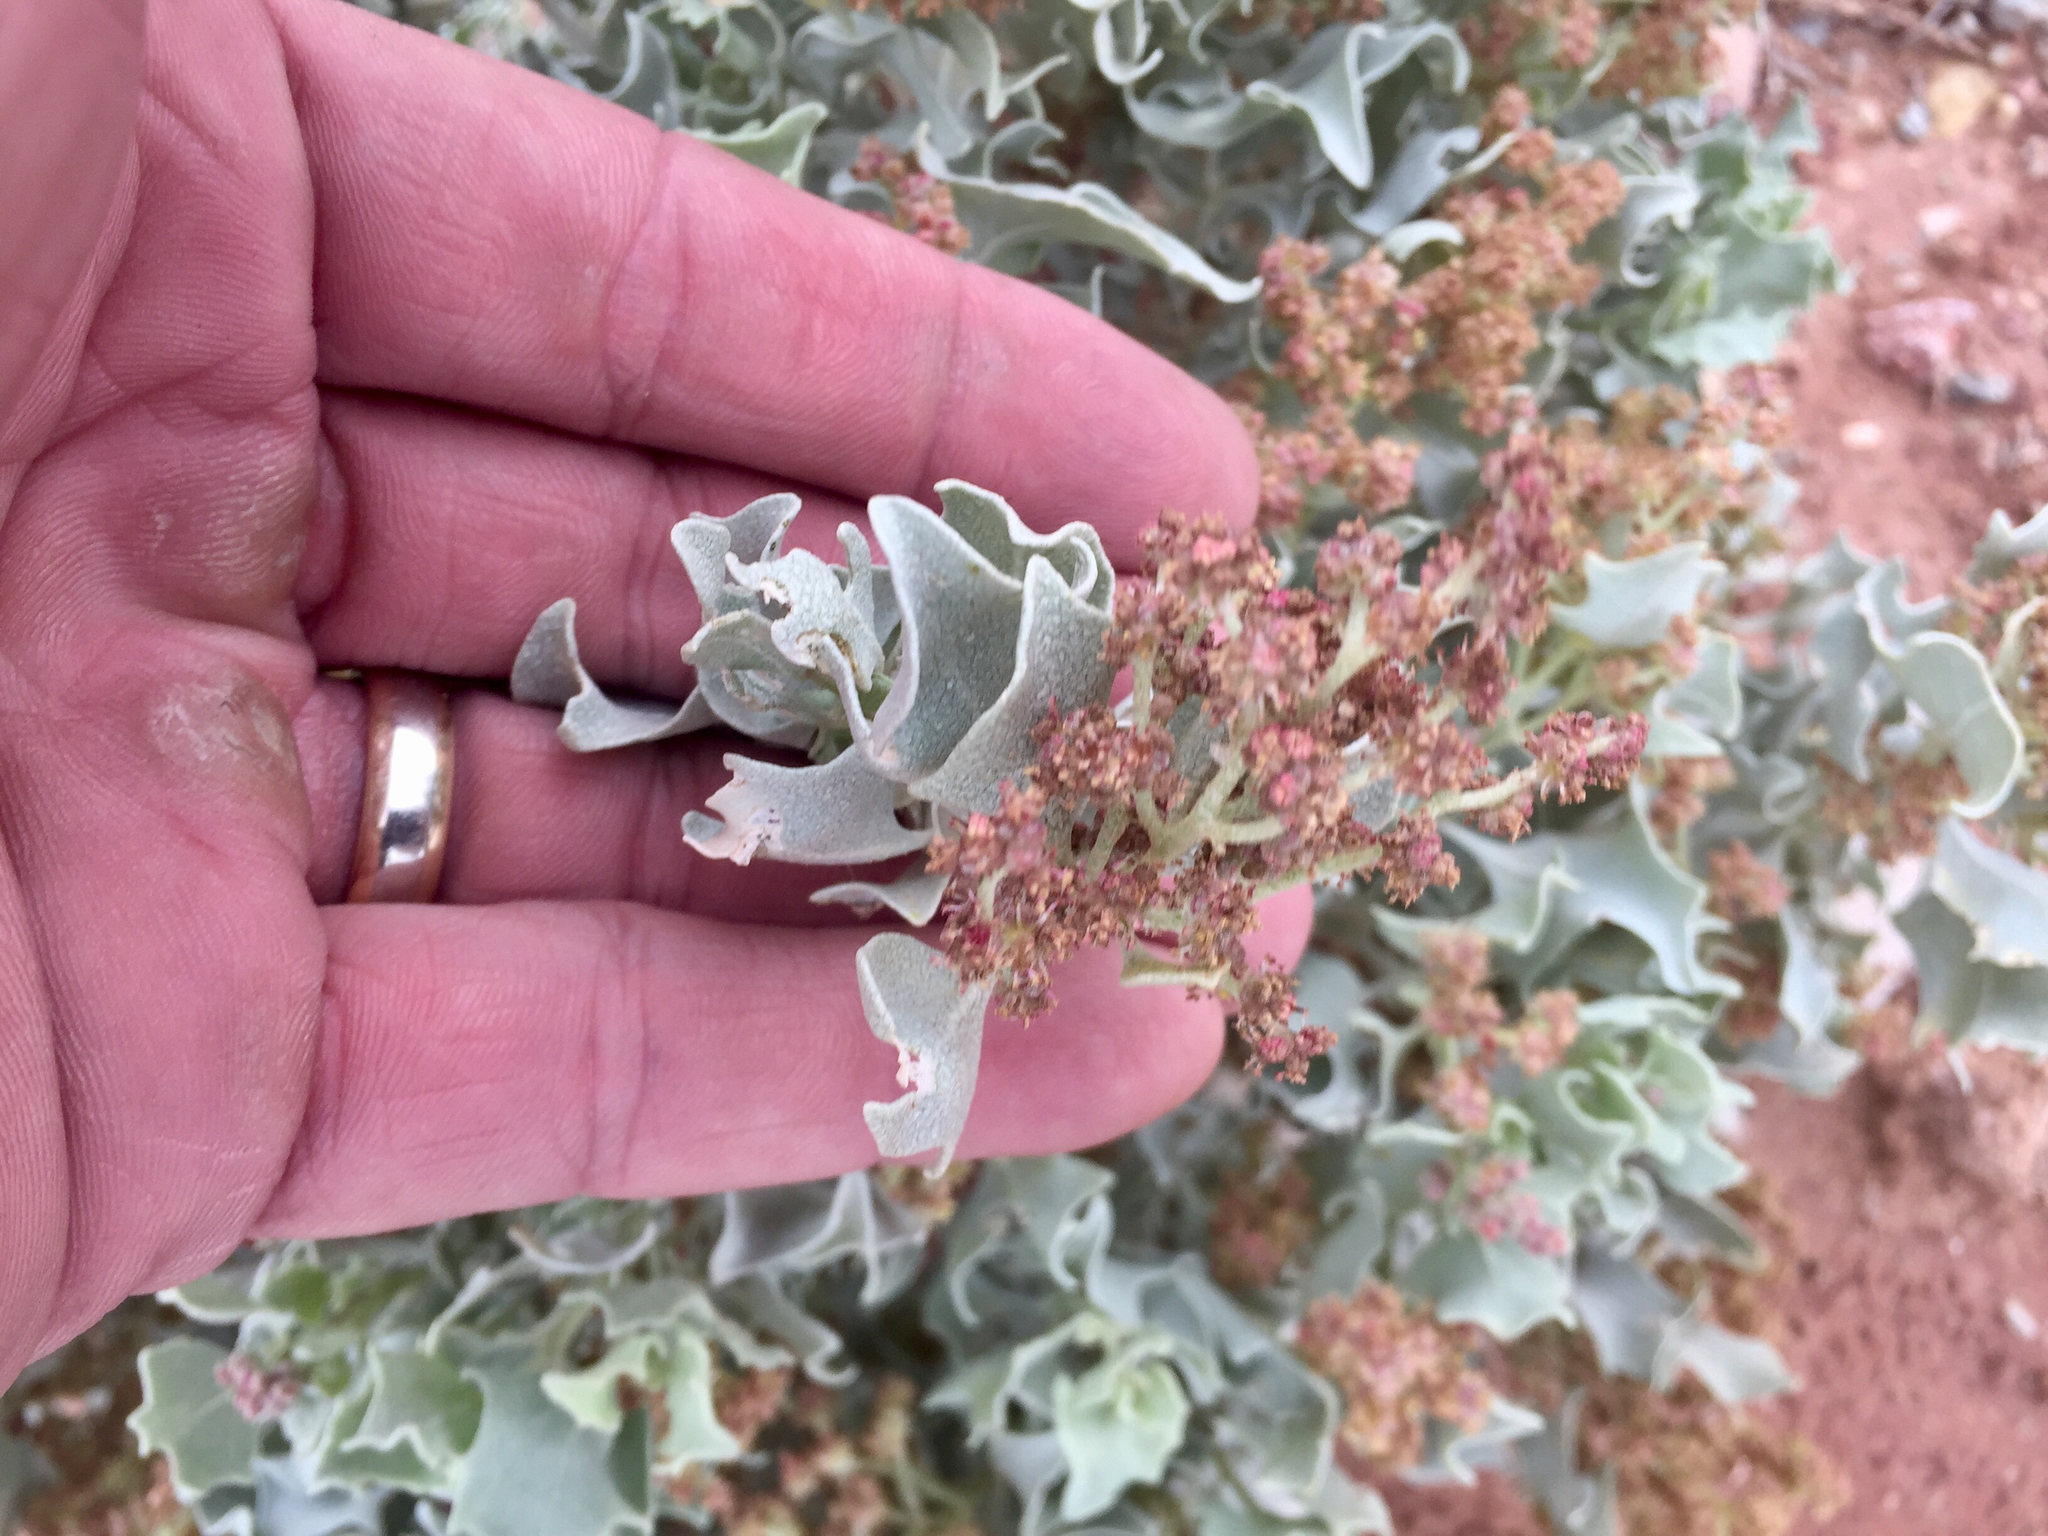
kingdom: Plantae
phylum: Tracheophyta
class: Magnoliopsida
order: Caryophyllales
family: Amaranthaceae
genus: Atriplex
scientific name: Atriplex hymenelytra
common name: Desert-holly
